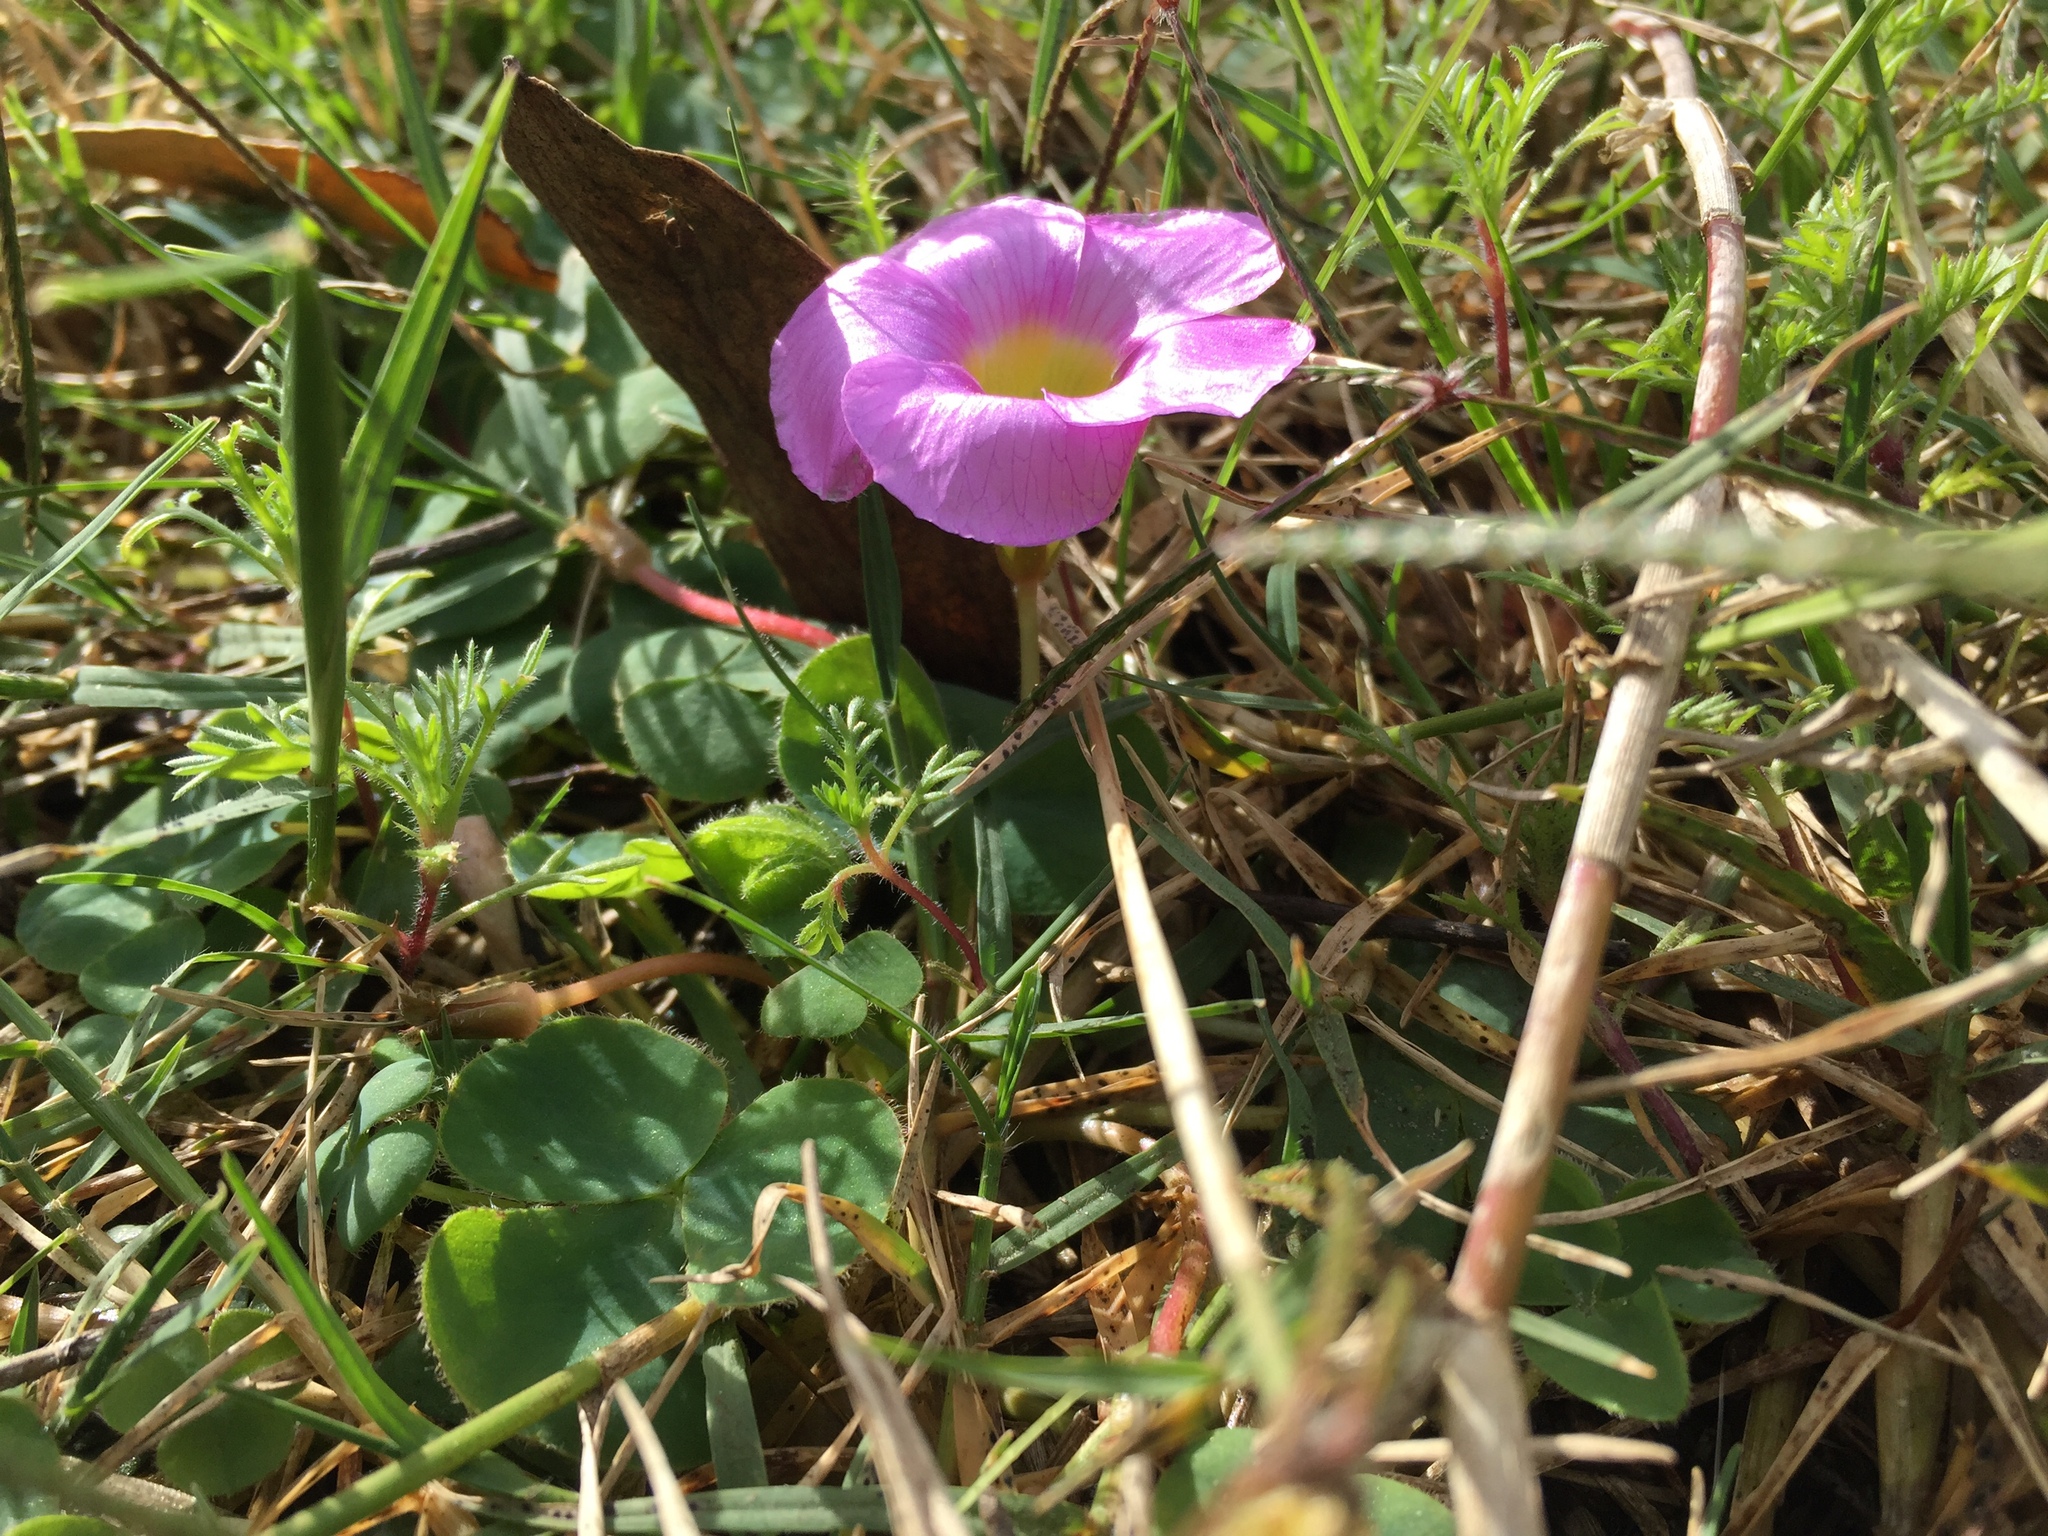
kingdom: Plantae
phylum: Tracheophyta
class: Magnoliopsida
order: Oxalidales
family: Oxalidaceae
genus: Oxalis
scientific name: Oxalis purpurea
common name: Purple woodsorrel
